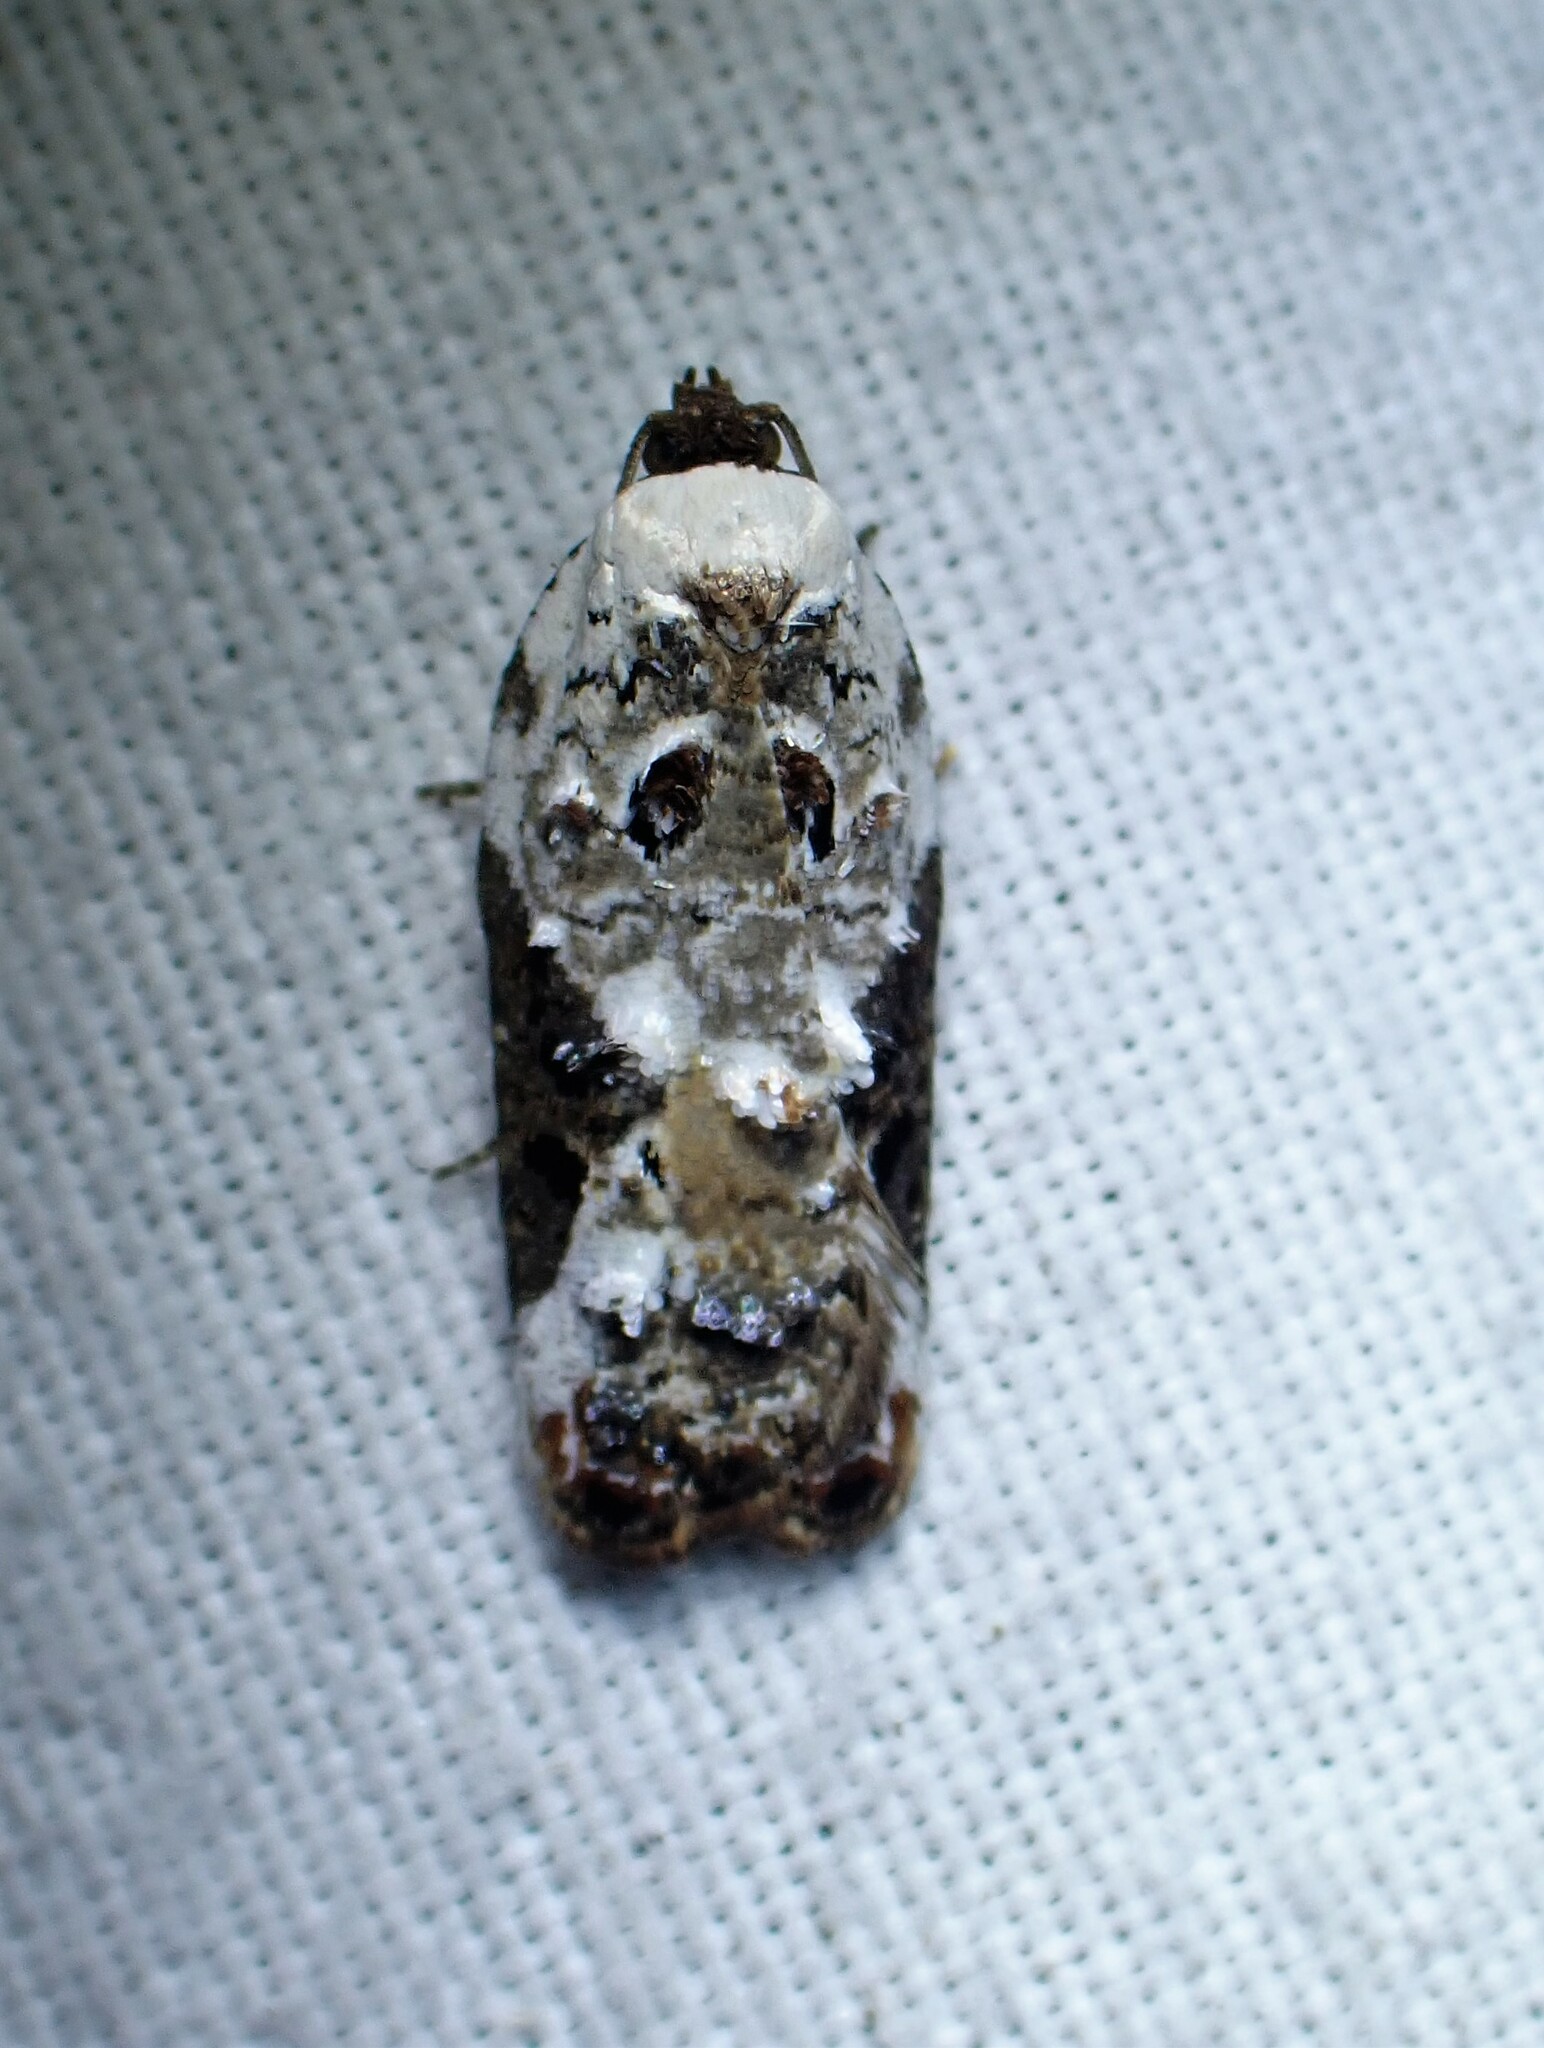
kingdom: Animalia
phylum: Arthropoda
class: Insecta
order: Lepidoptera
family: Tortricidae
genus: Acleris
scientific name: Acleris nivisellana
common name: Snowy-shouldered acleris moth
